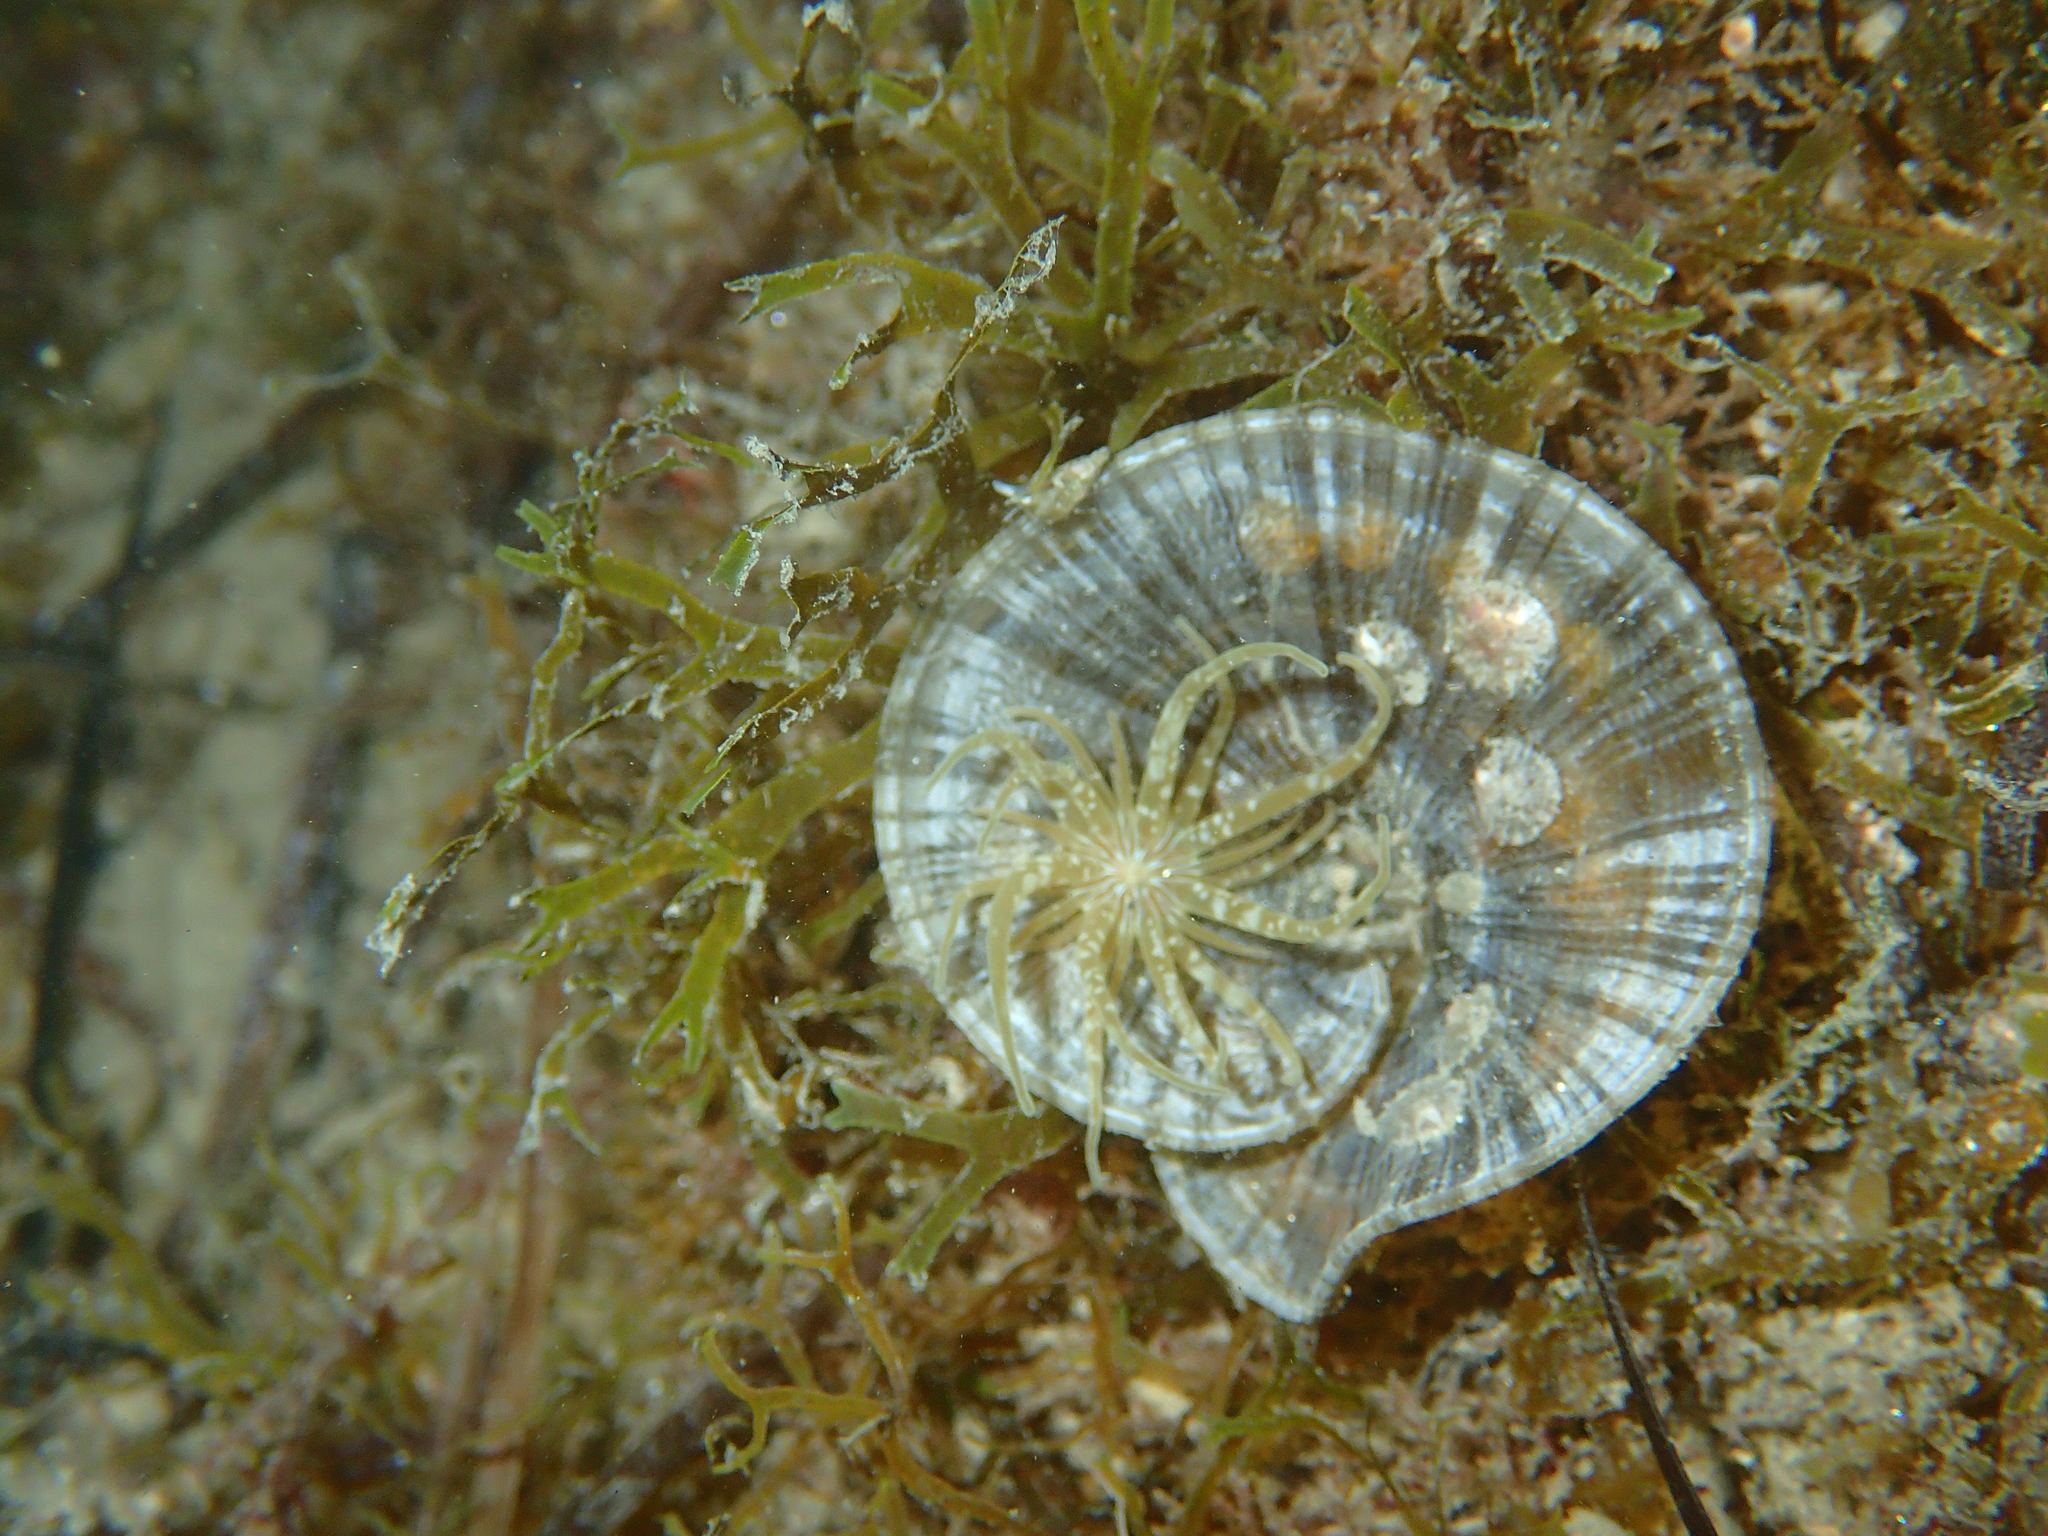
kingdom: Animalia
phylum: Cnidaria
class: Anthozoa
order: Actiniaria
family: Actiniidae
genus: Paranemonia
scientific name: Paranemonia cinerea
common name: Grass crack anemone
